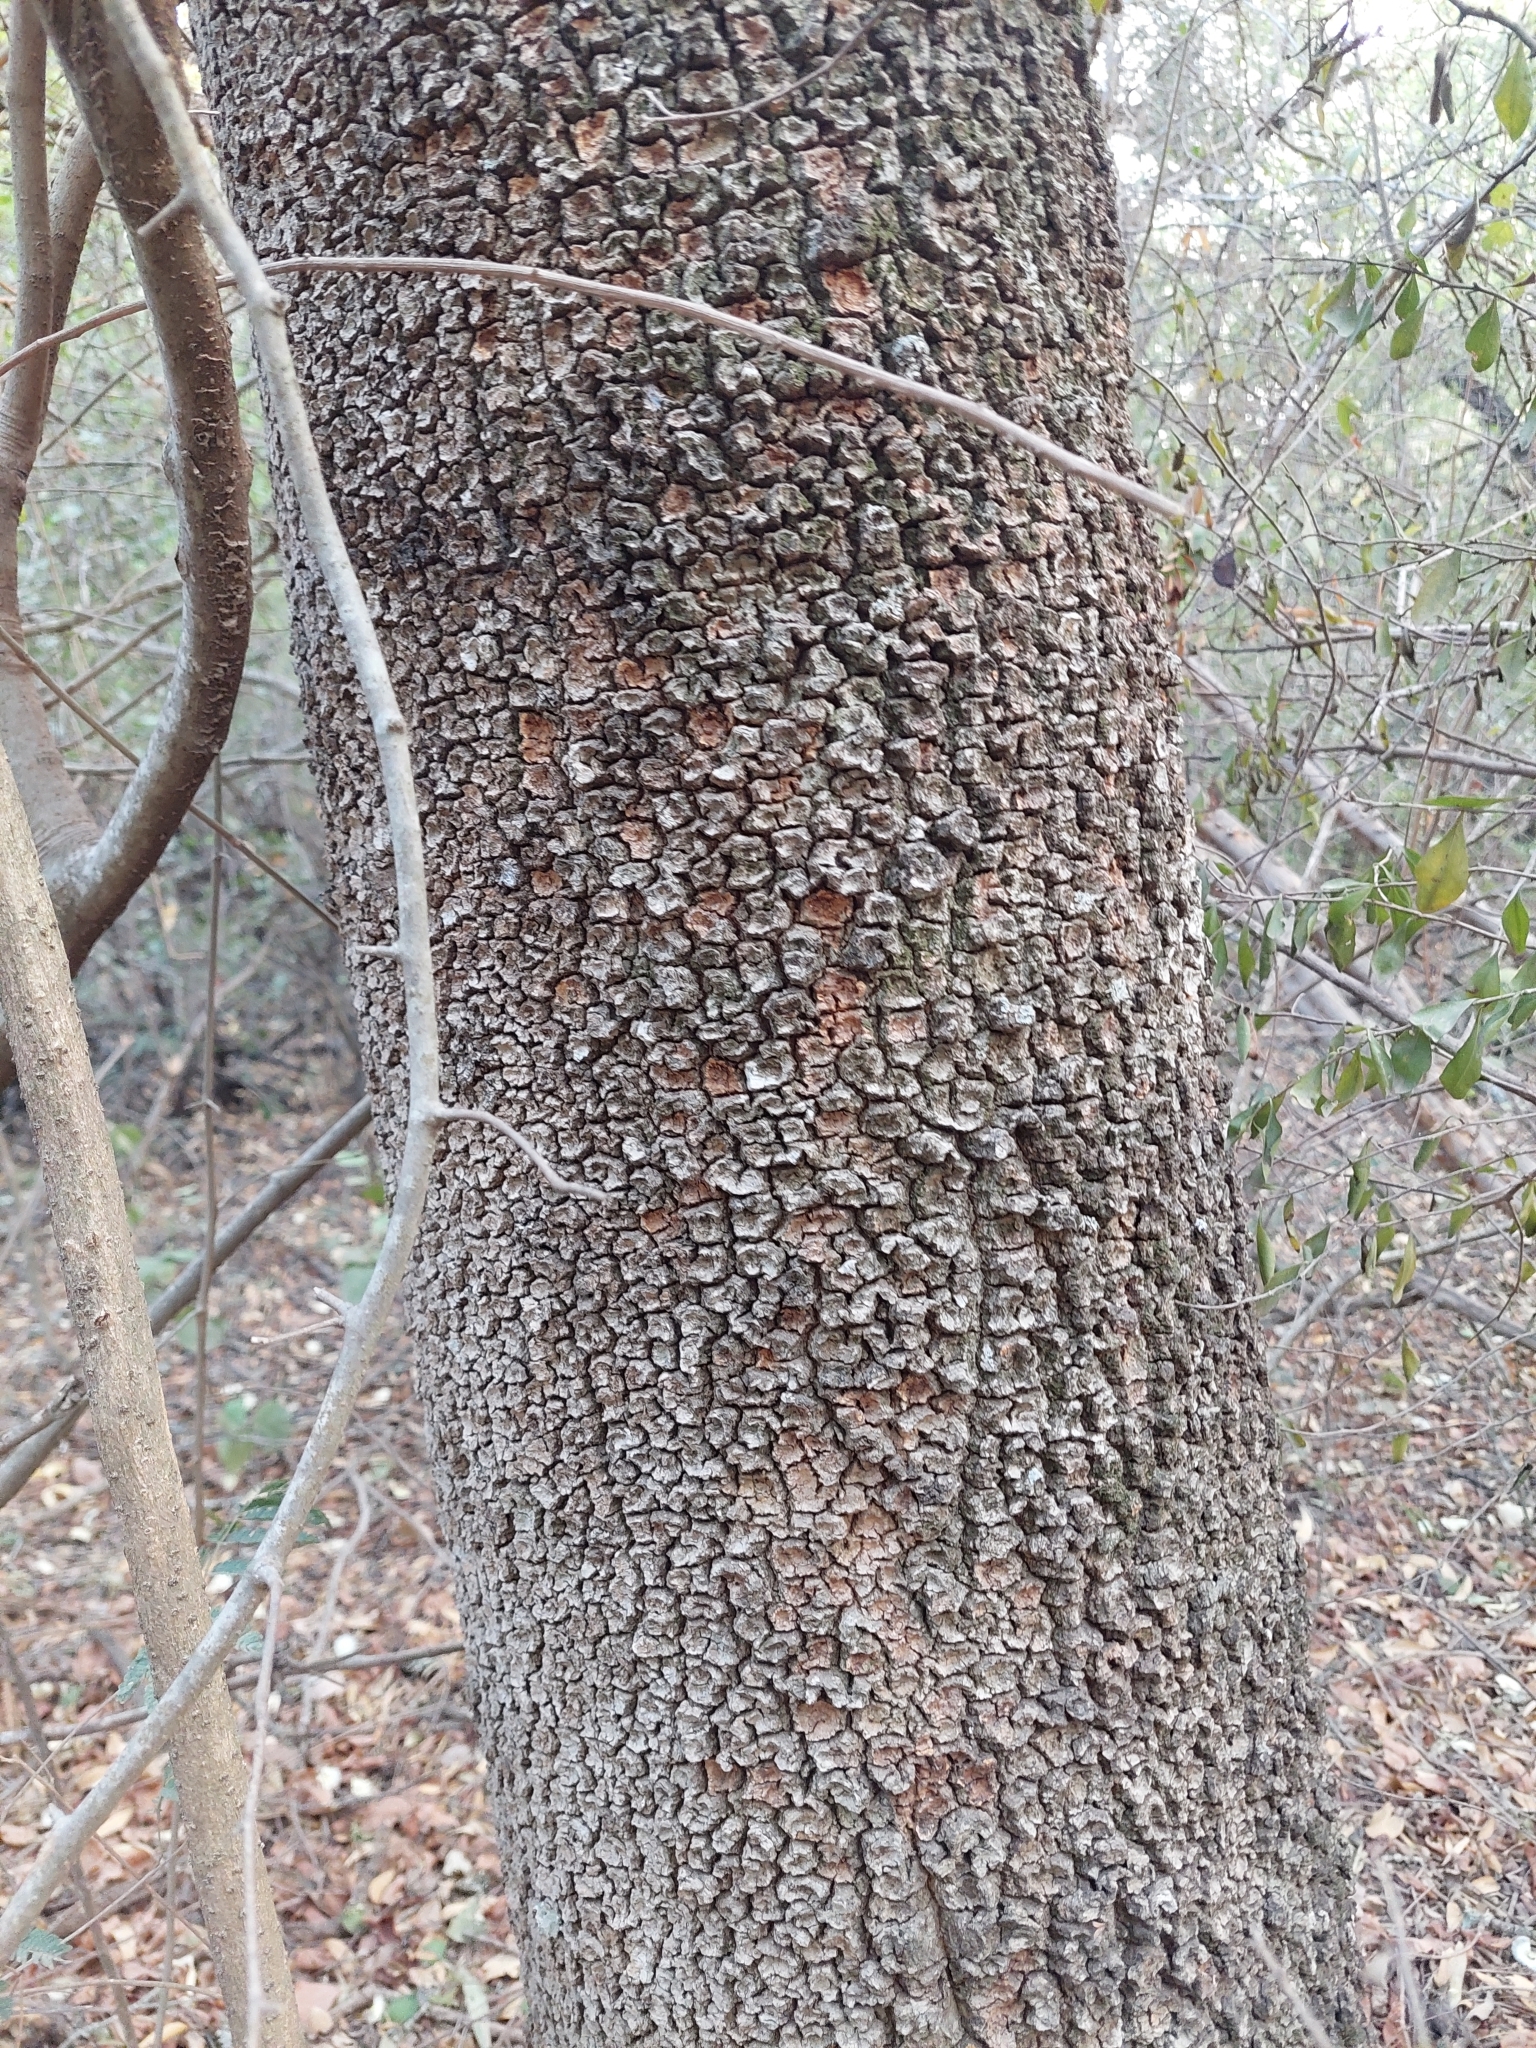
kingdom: Plantae
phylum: Tracheophyta
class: Magnoliopsida
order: Gentianales
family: Apocynaceae
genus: Aspidosperma
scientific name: Aspidosperma triternatum
